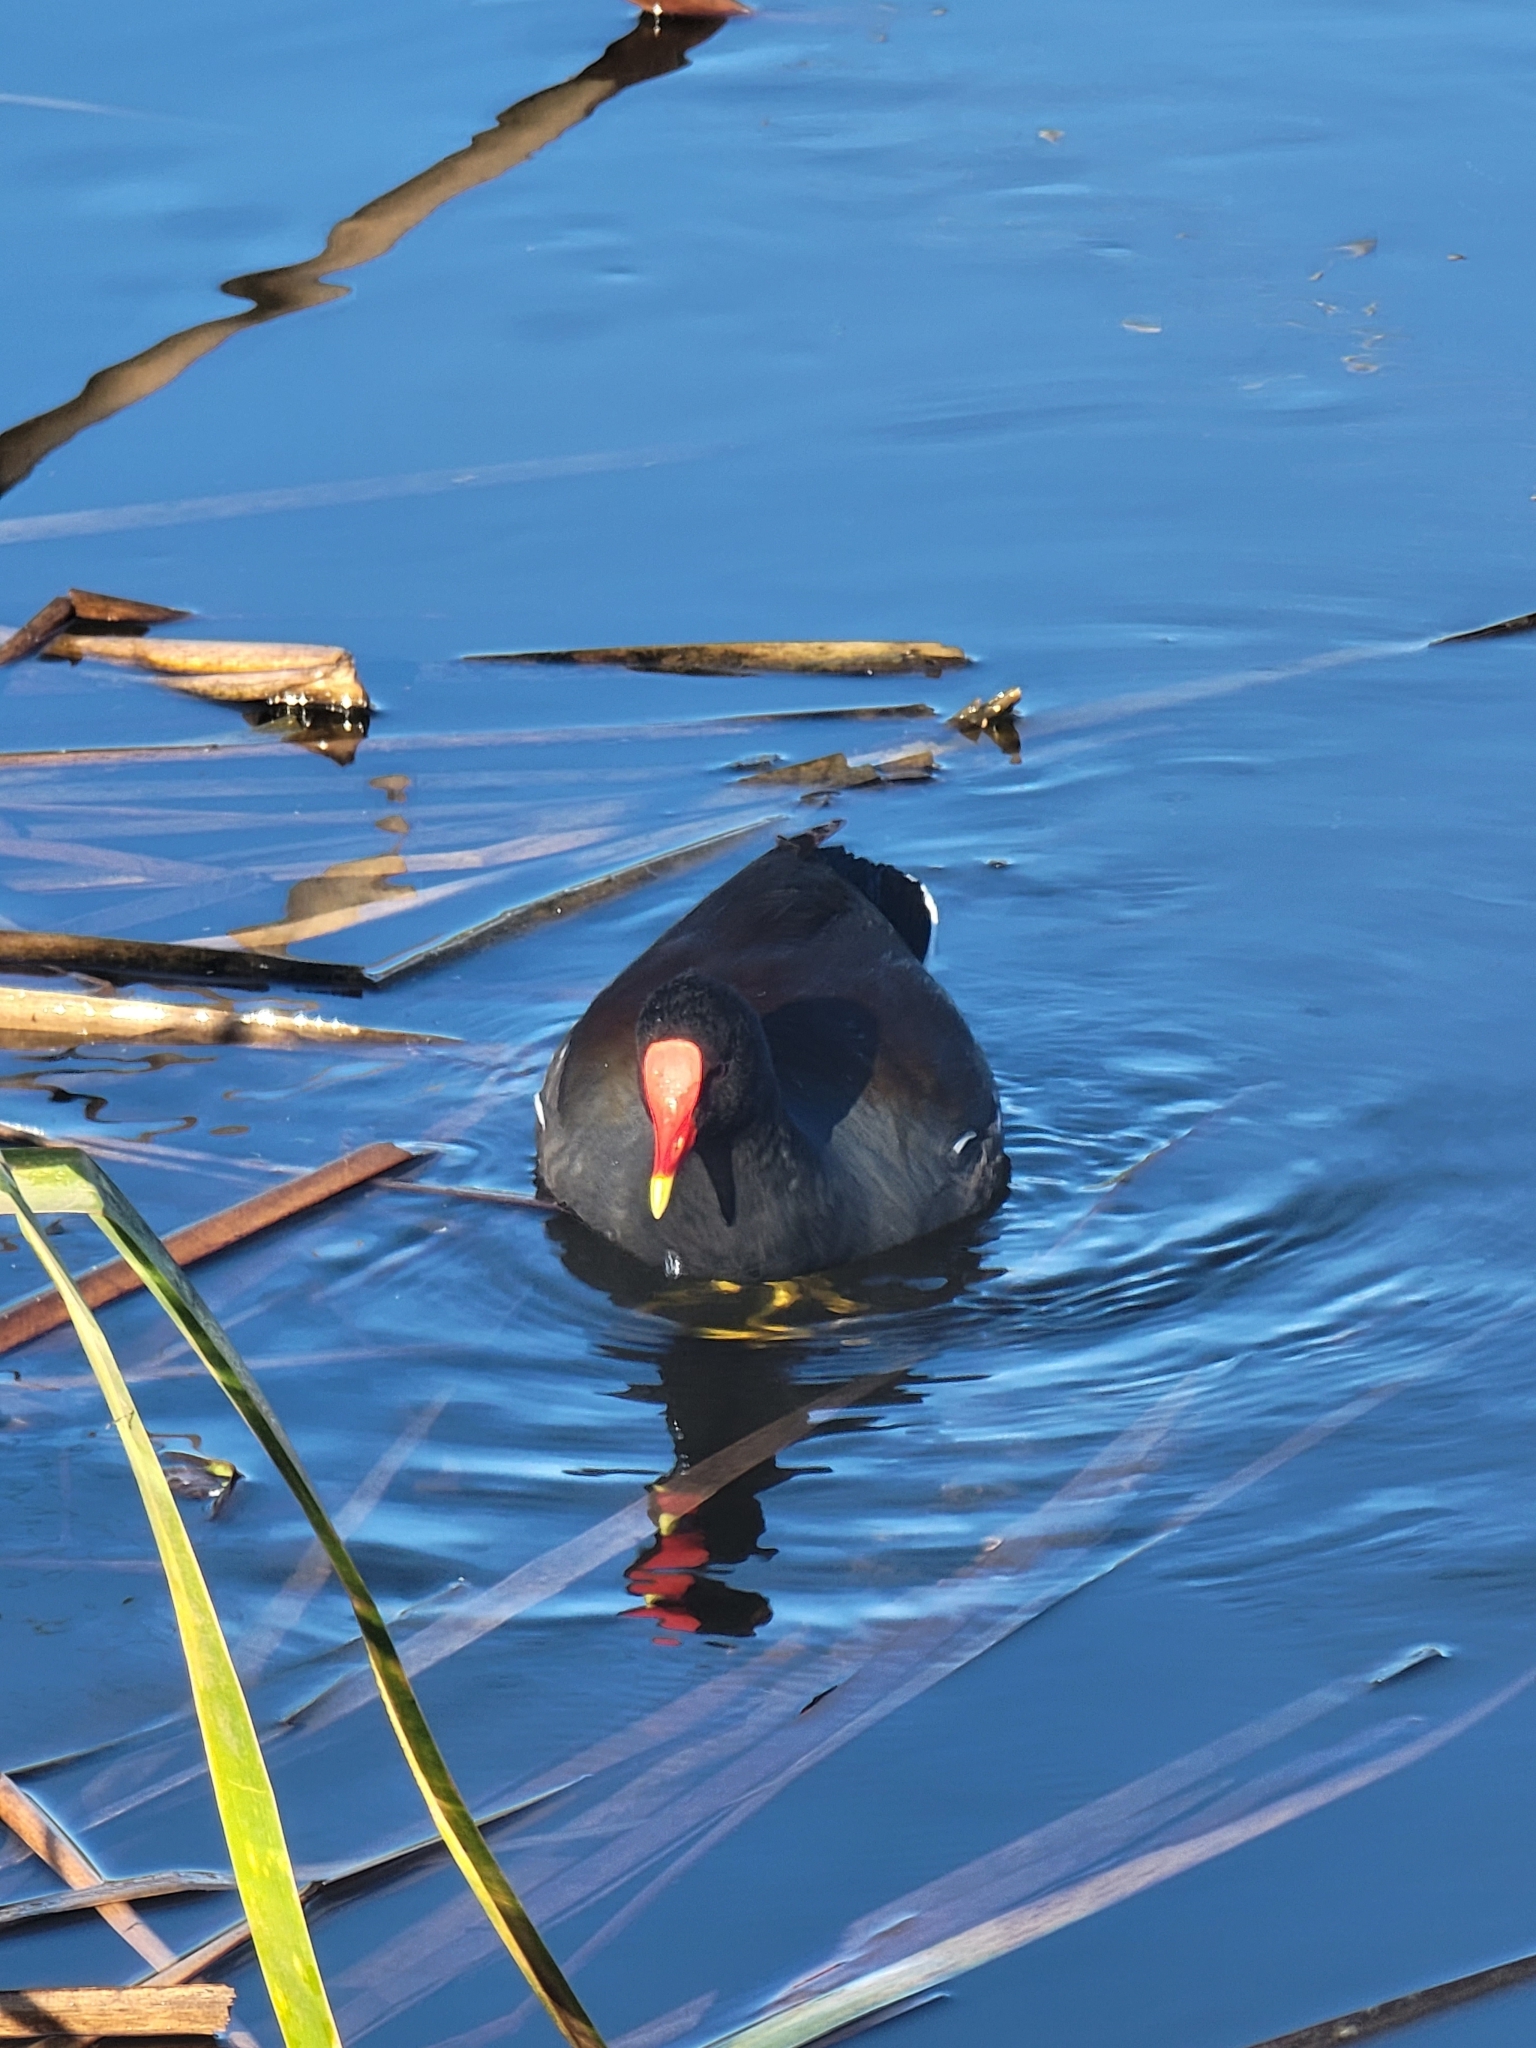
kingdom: Animalia
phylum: Chordata
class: Aves
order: Gruiformes
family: Rallidae
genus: Gallinula
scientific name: Gallinula chloropus
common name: Common moorhen
